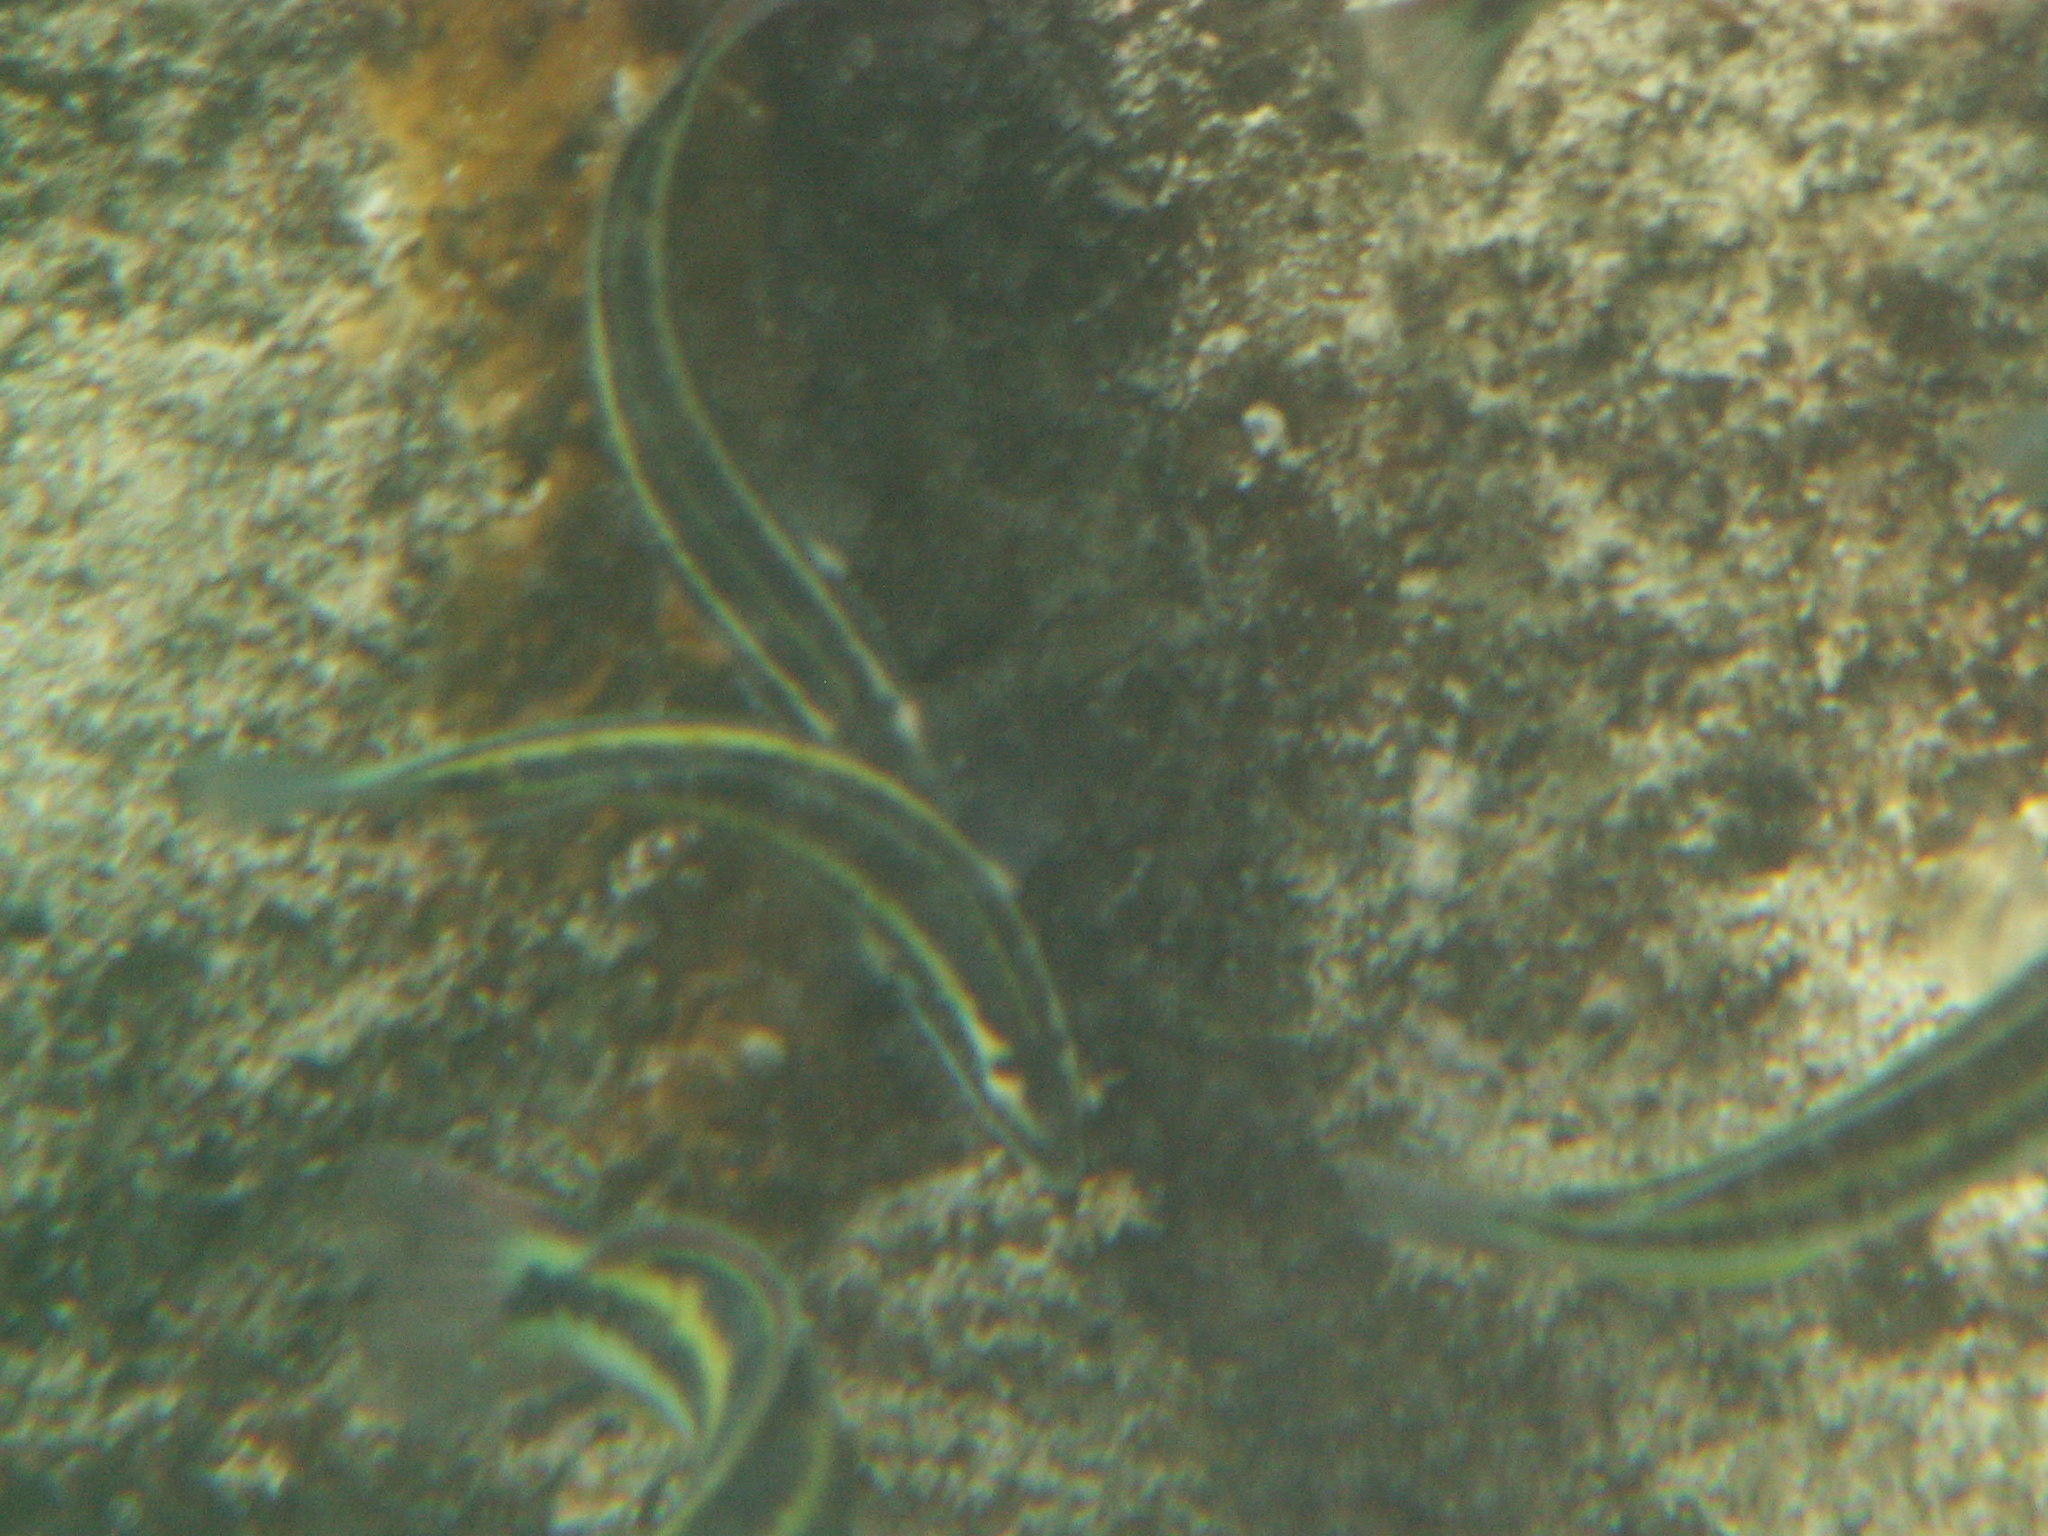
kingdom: Animalia
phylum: Chordata
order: Perciformes
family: Labridae
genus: Thalassoma
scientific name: Thalassoma pavo
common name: Ornate wrasse
